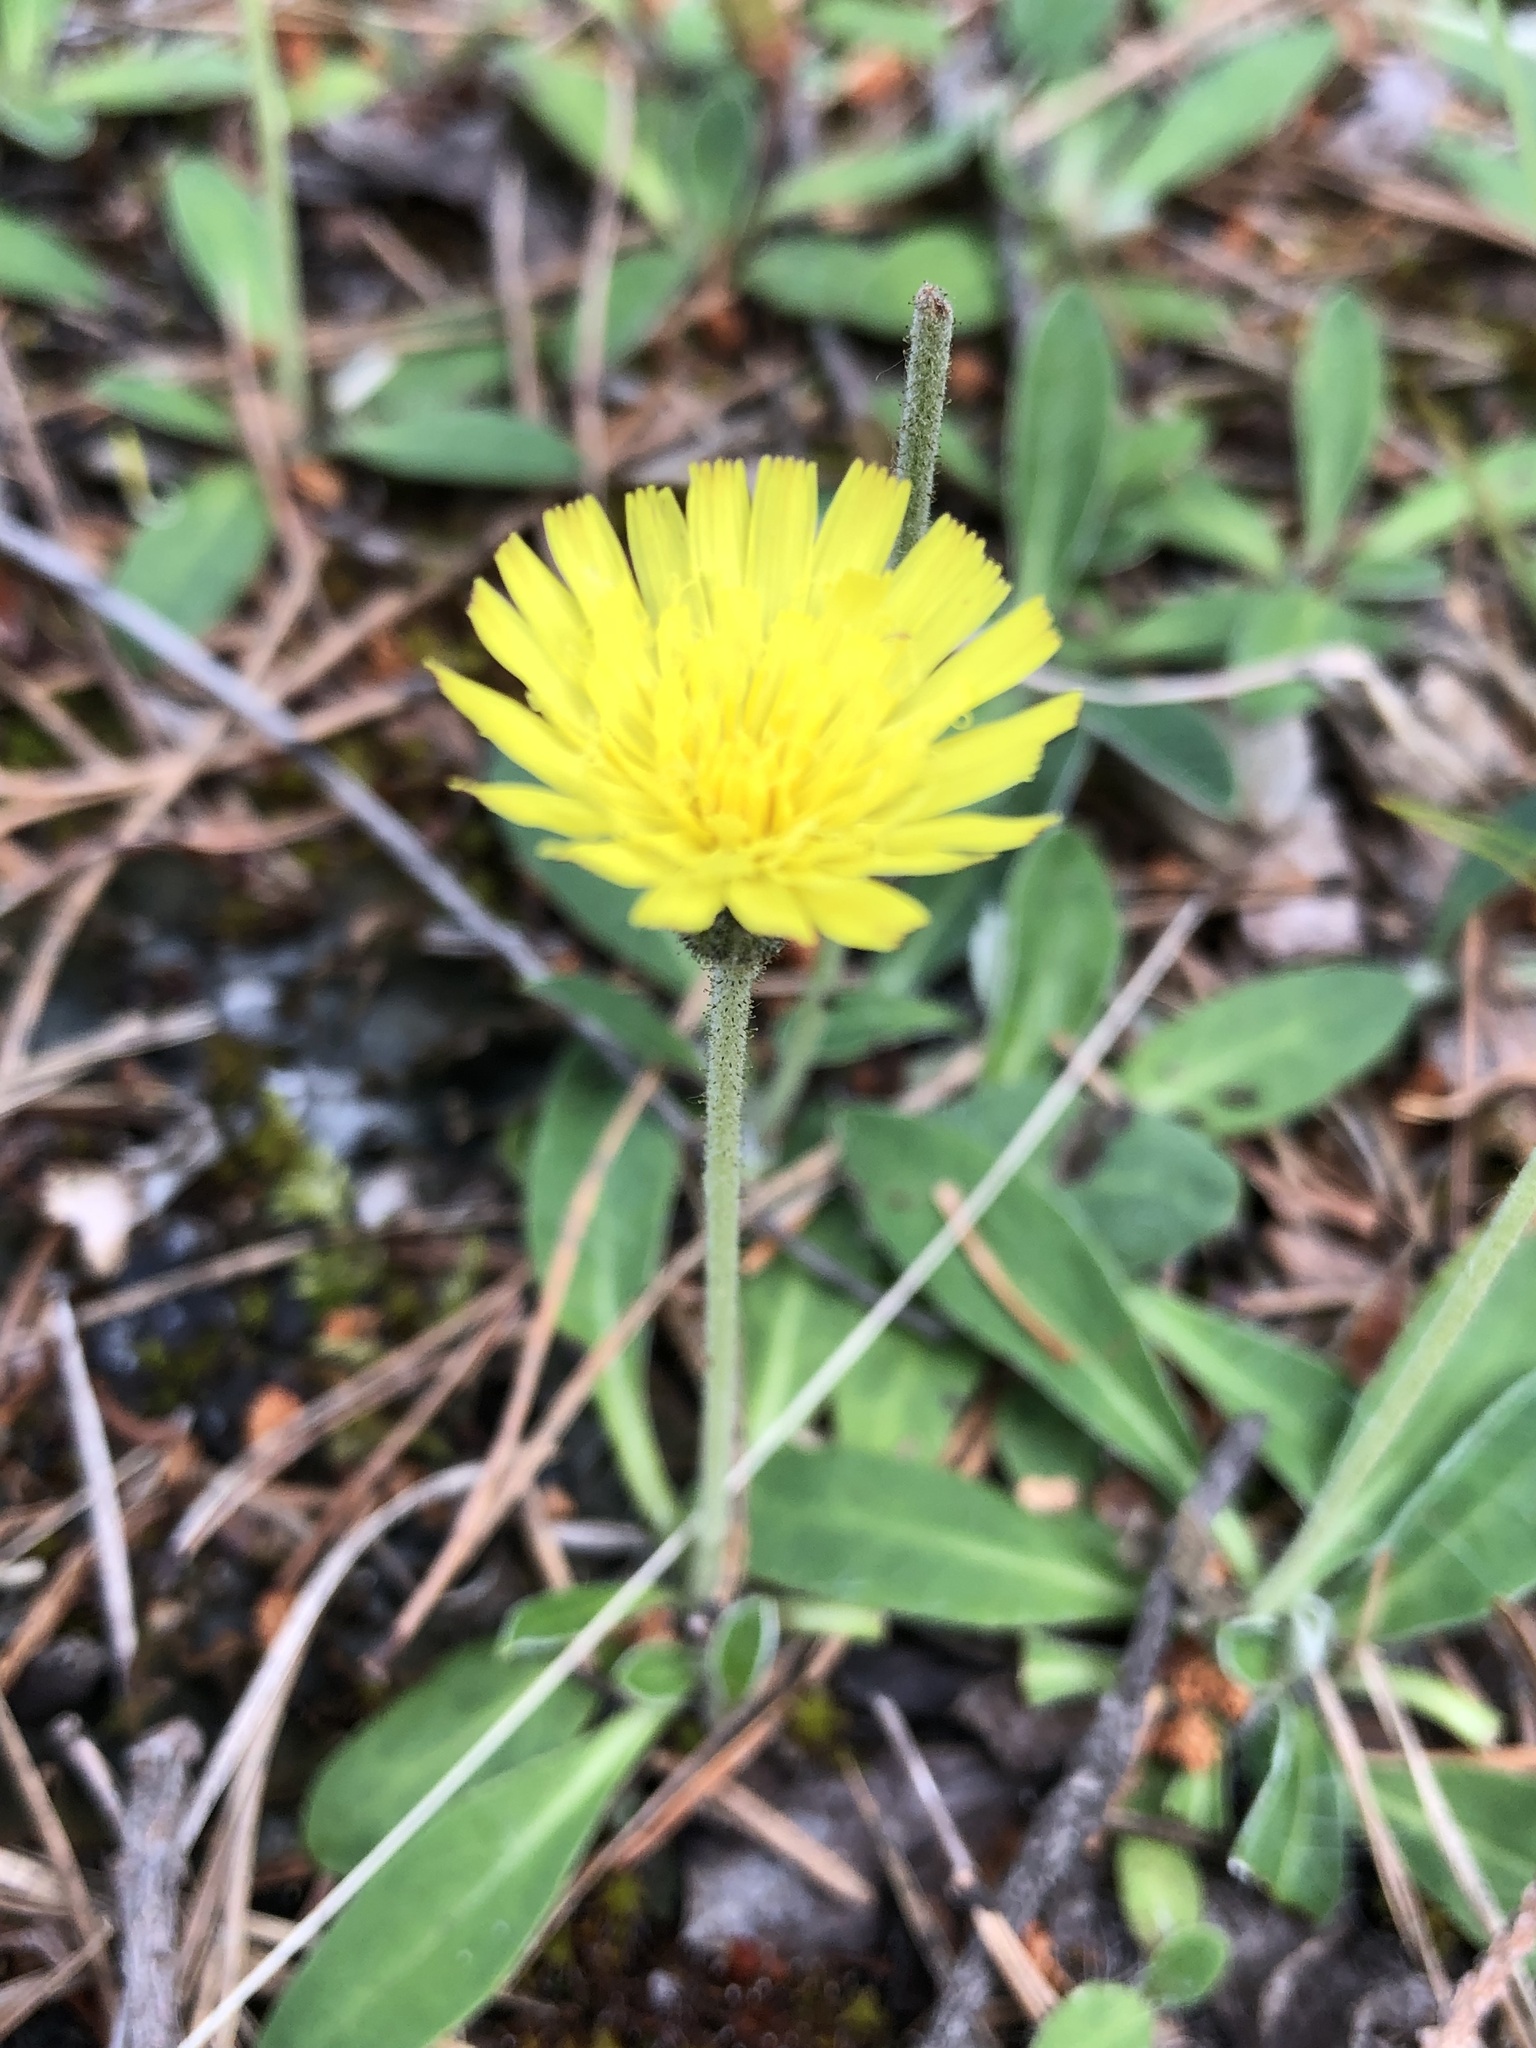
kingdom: Plantae
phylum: Tracheophyta
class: Magnoliopsida
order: Asterales
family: Asteraceae
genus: Pilosella
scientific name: Pilosella officinarum
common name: Mouse-ear hawkweed
